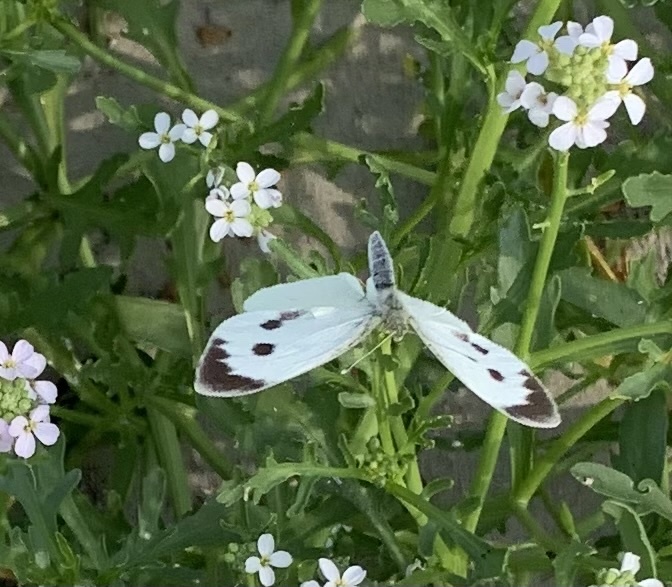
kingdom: Animalia
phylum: Arthropoda
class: Insecta
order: Lepidoptera
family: Pieridae
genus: Pieris
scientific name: Pieris brassicae
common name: Large white
